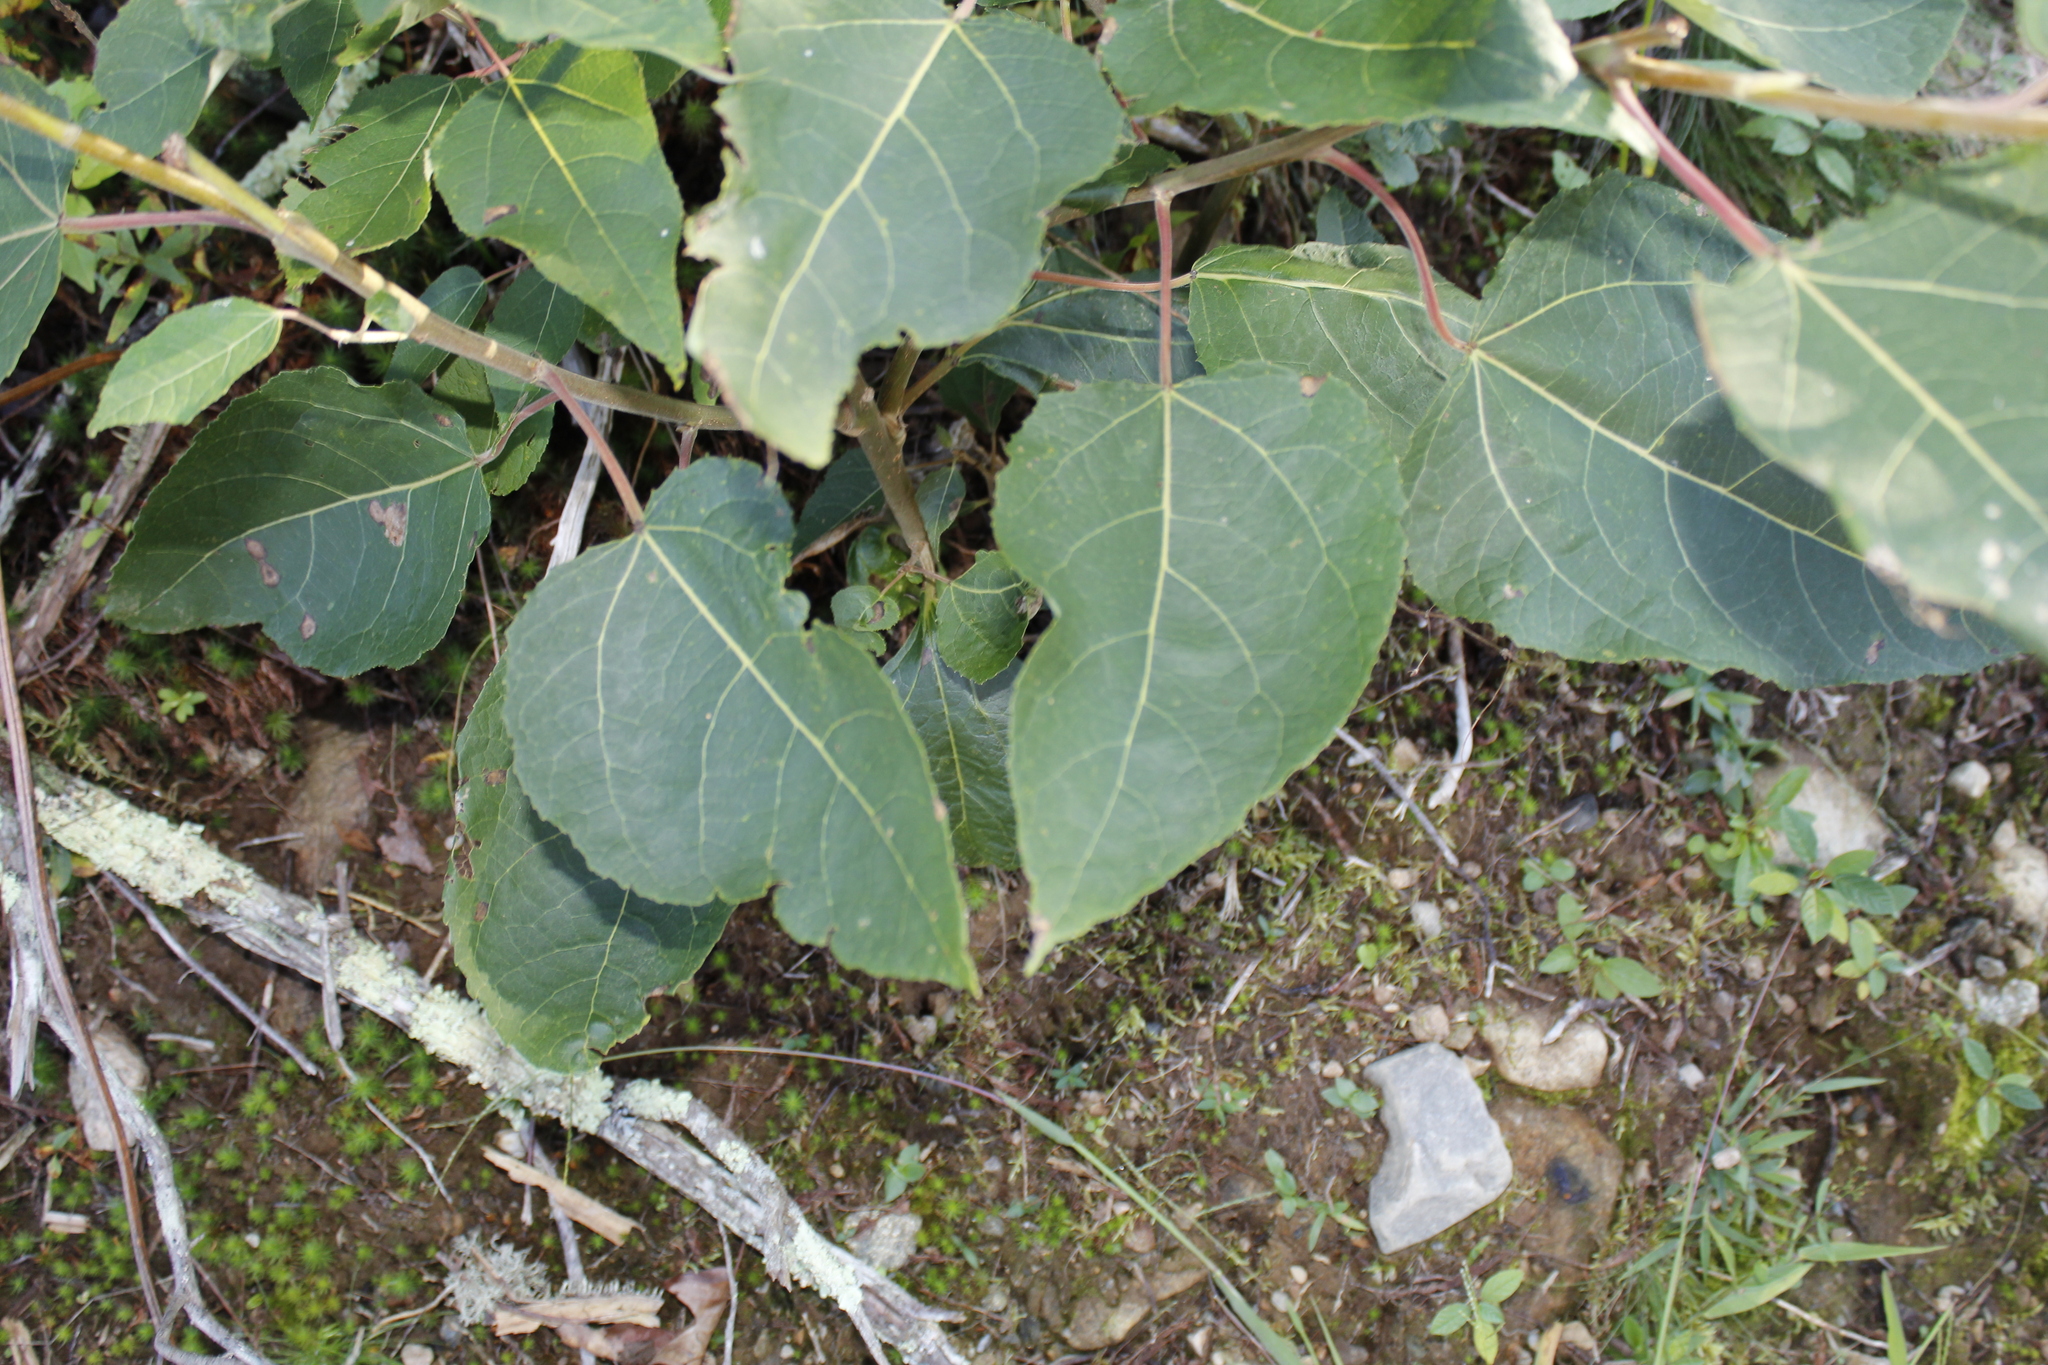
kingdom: Plantae
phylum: Tracheophyta
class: Magnoliopsida
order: Malpighiales
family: Salicaceae
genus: Populus
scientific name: Populus tremuloides
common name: Quaking aspen
